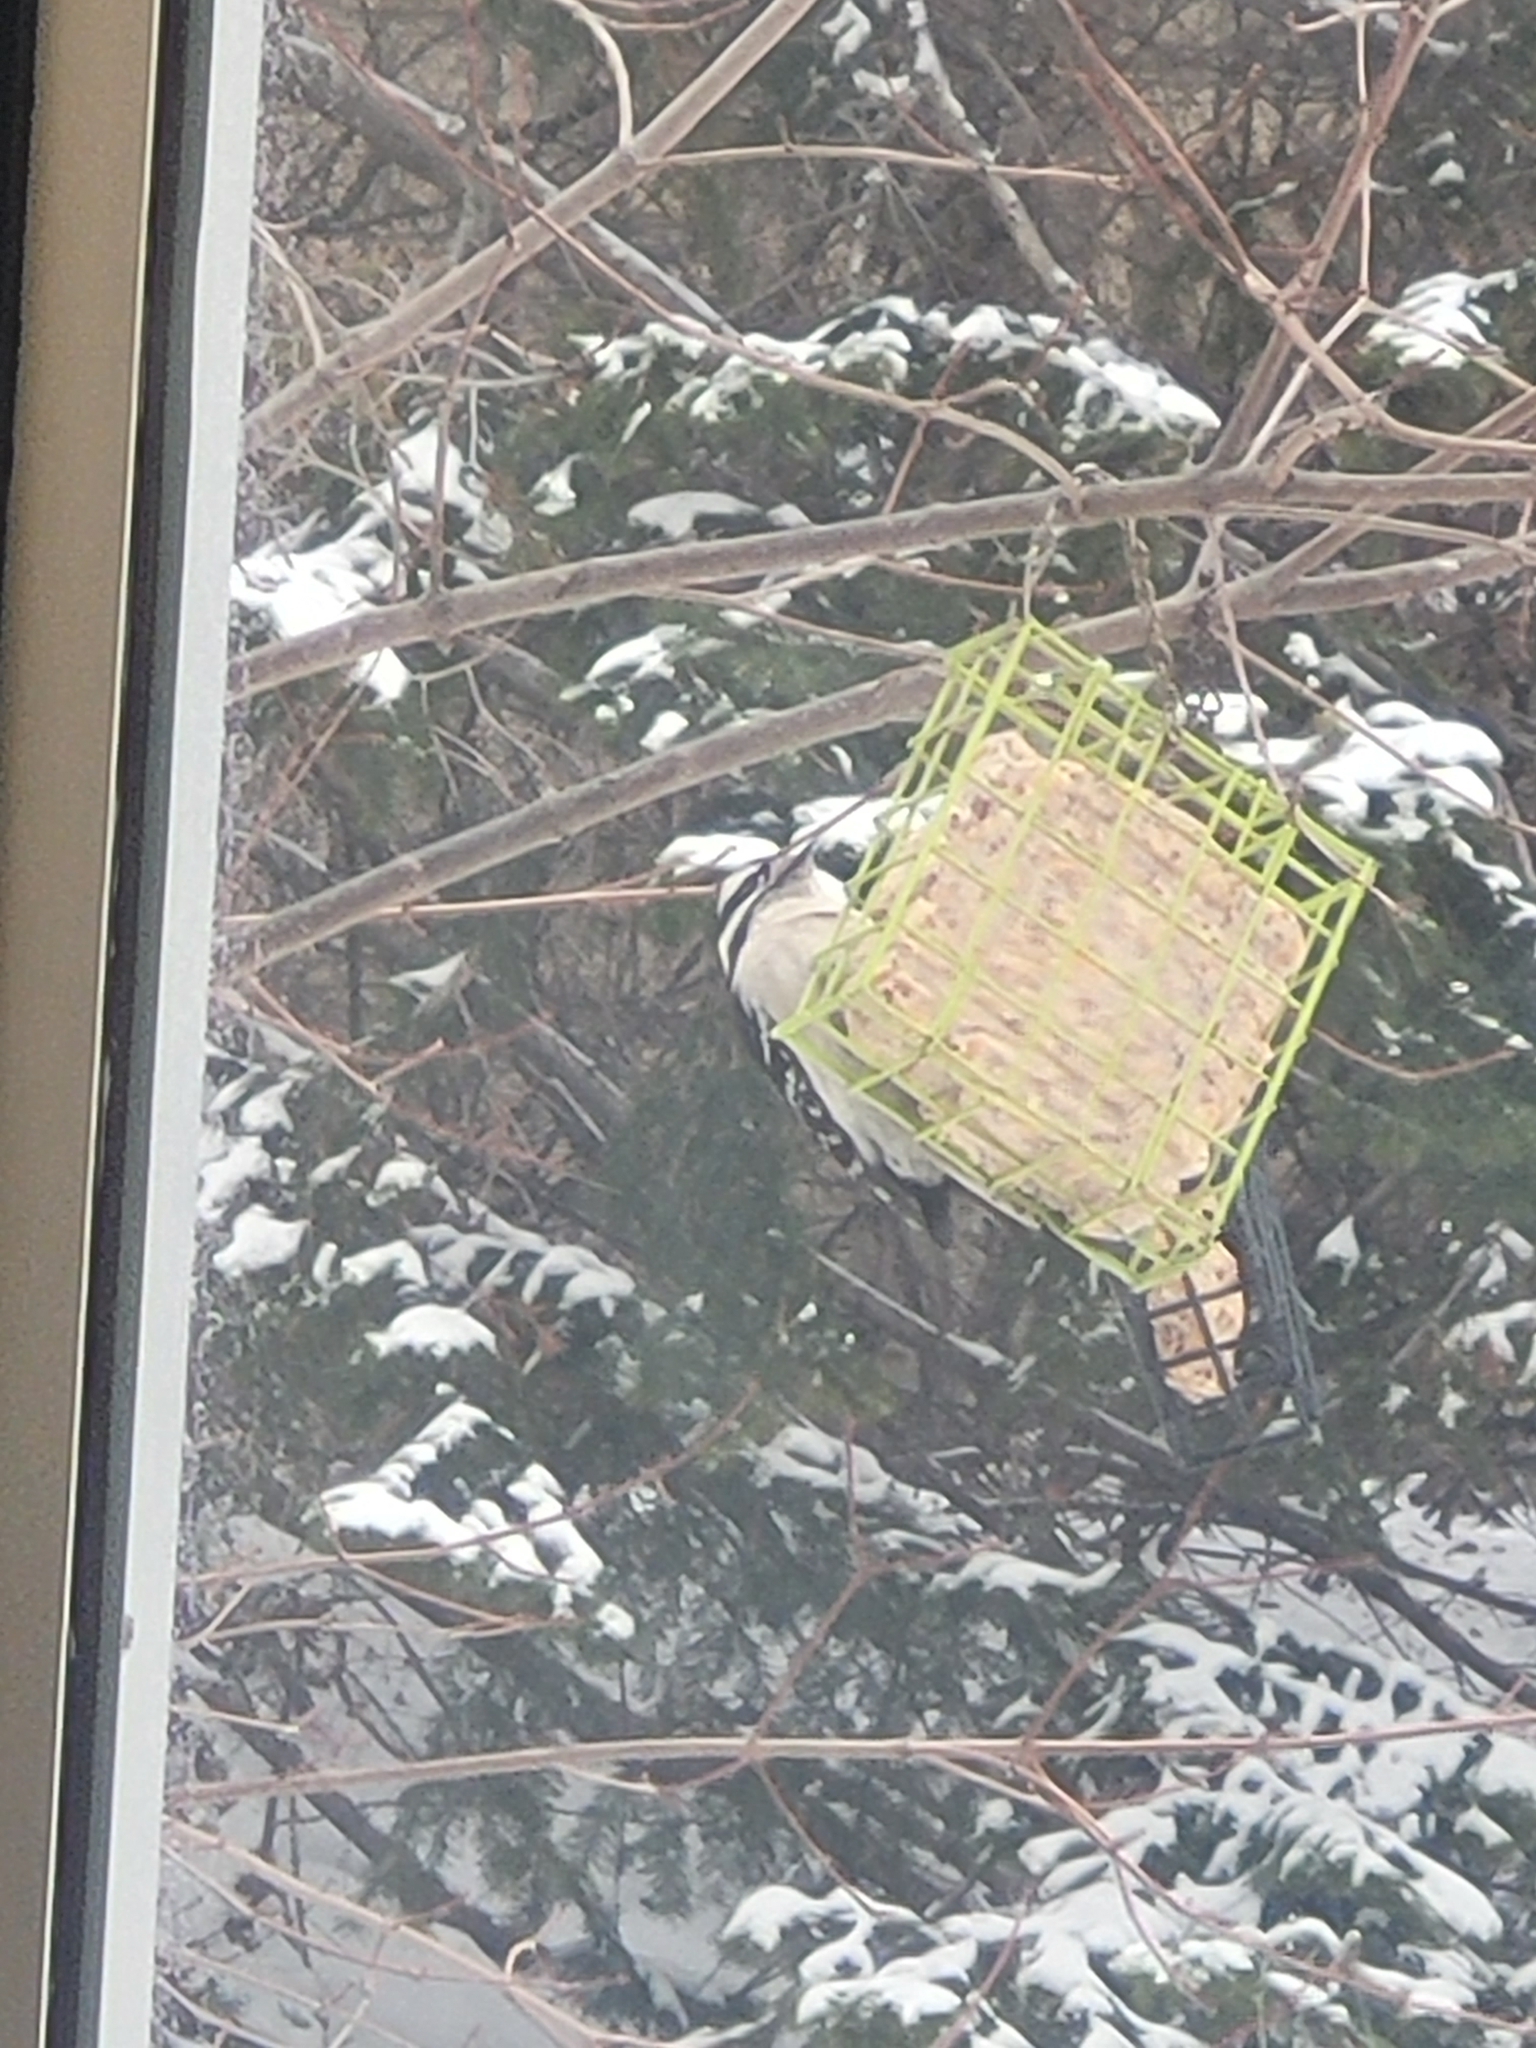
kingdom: Animalia
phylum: Chordata
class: Aves
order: Piciformes
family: Picidae
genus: Dryobates
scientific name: Dryobates pubescens
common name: Downy woodpecker
